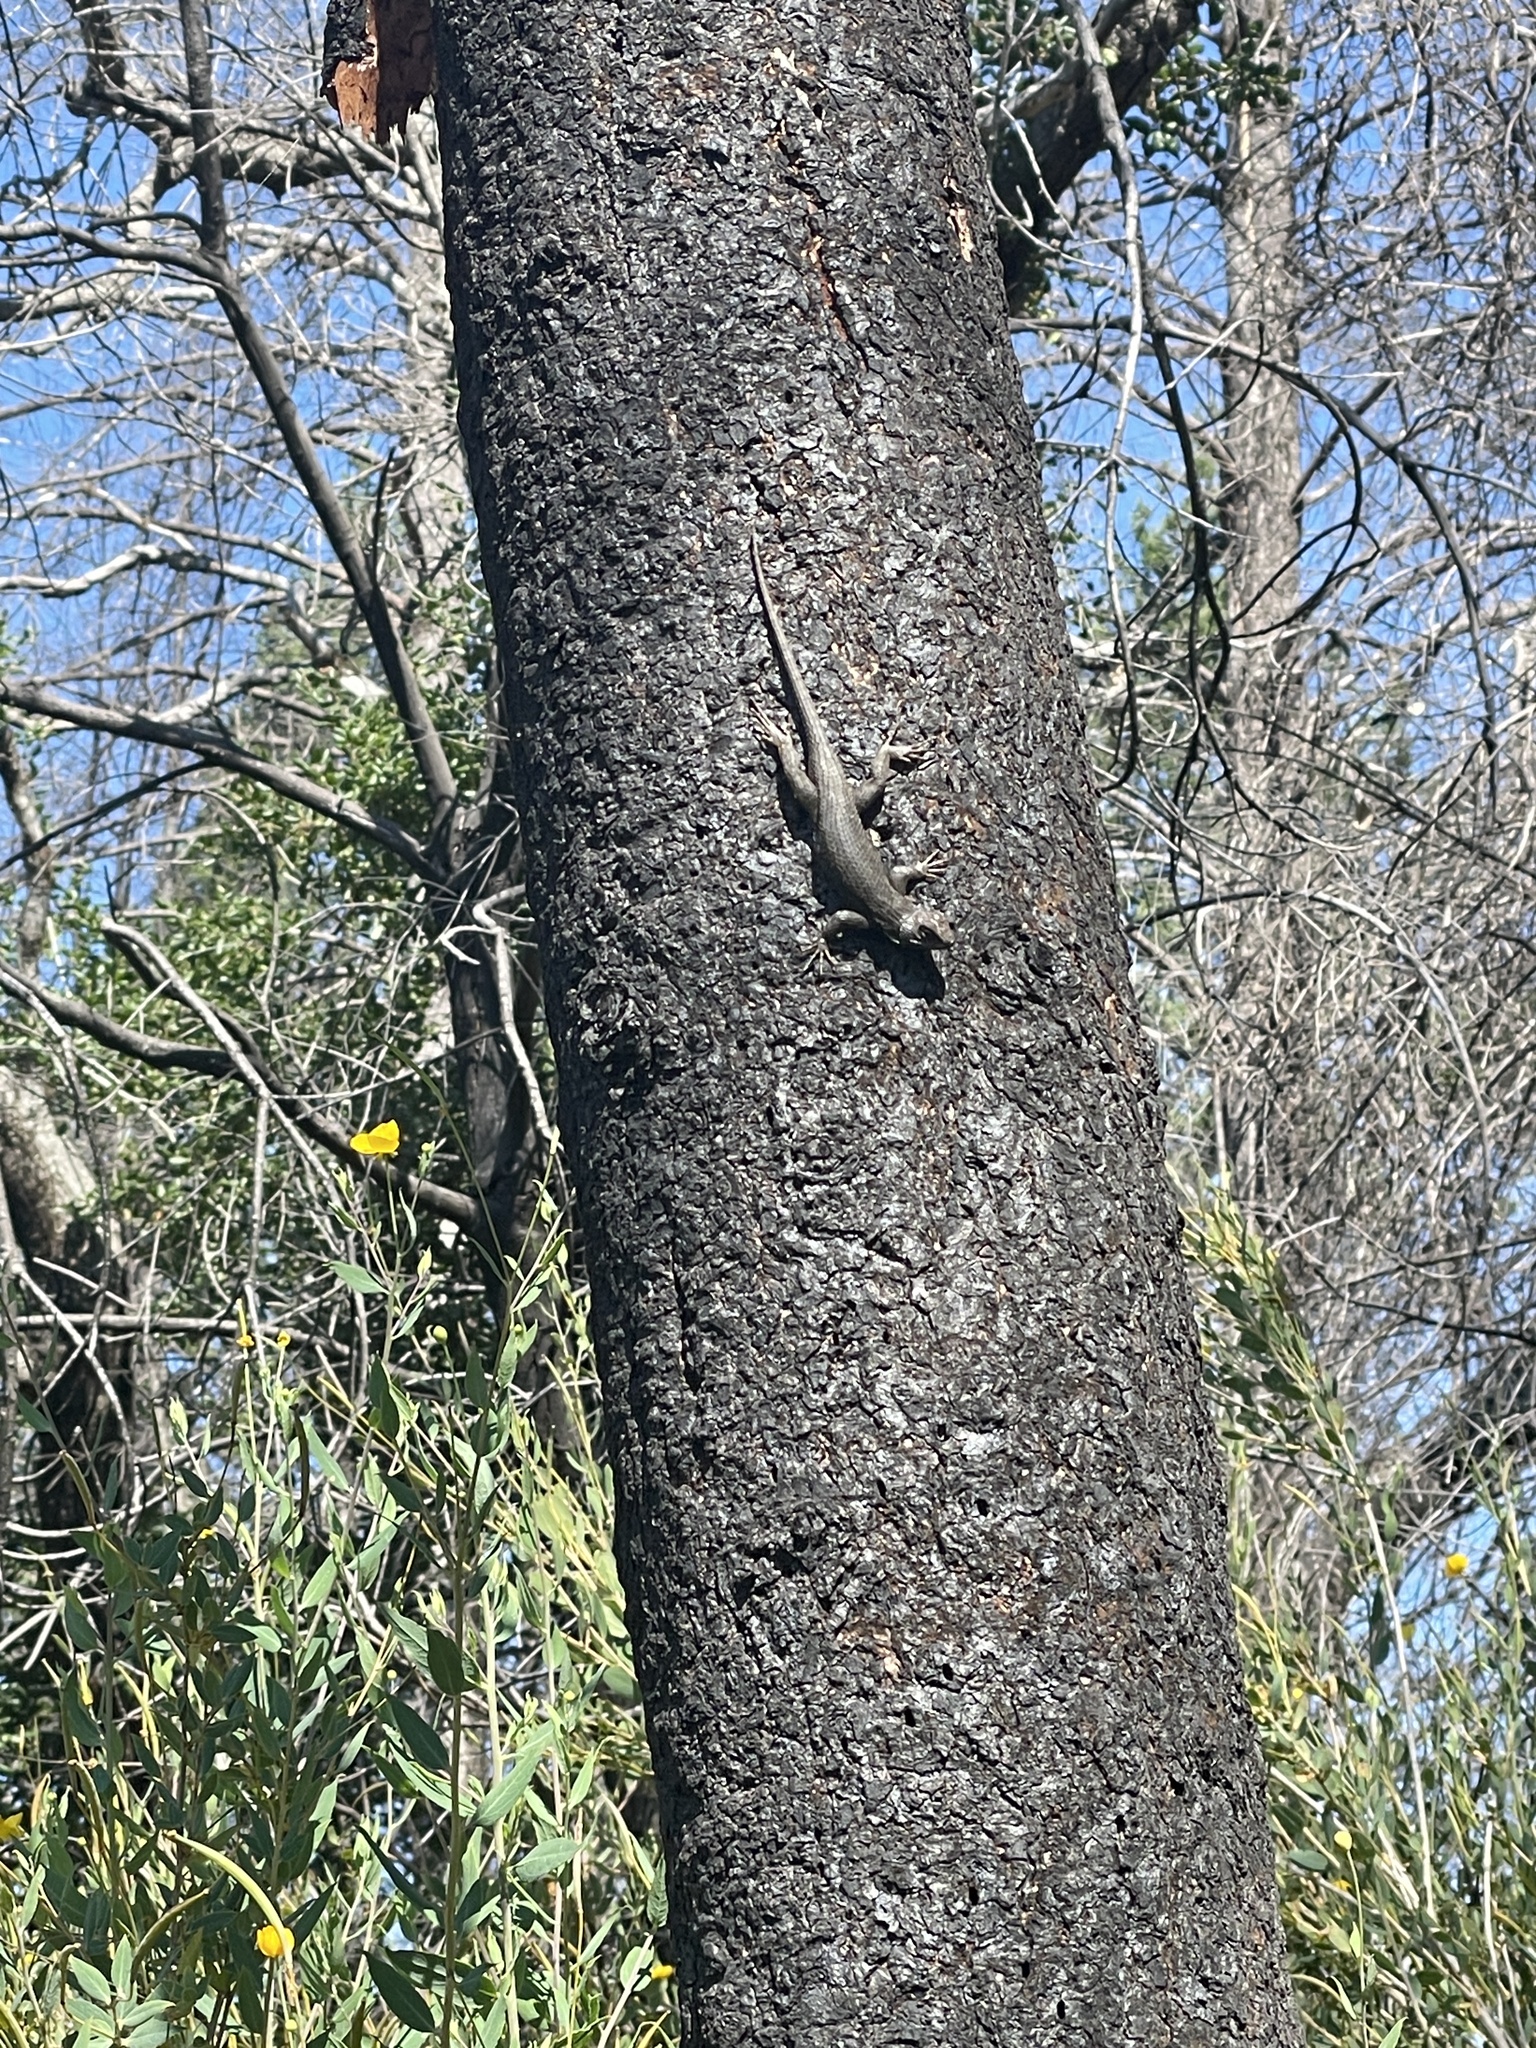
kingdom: Animalia
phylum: Chordata
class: Squamata
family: Phrynosomatidae
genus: Sceloporus
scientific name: Sceloporus occidentalis
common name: Western fence lizard
